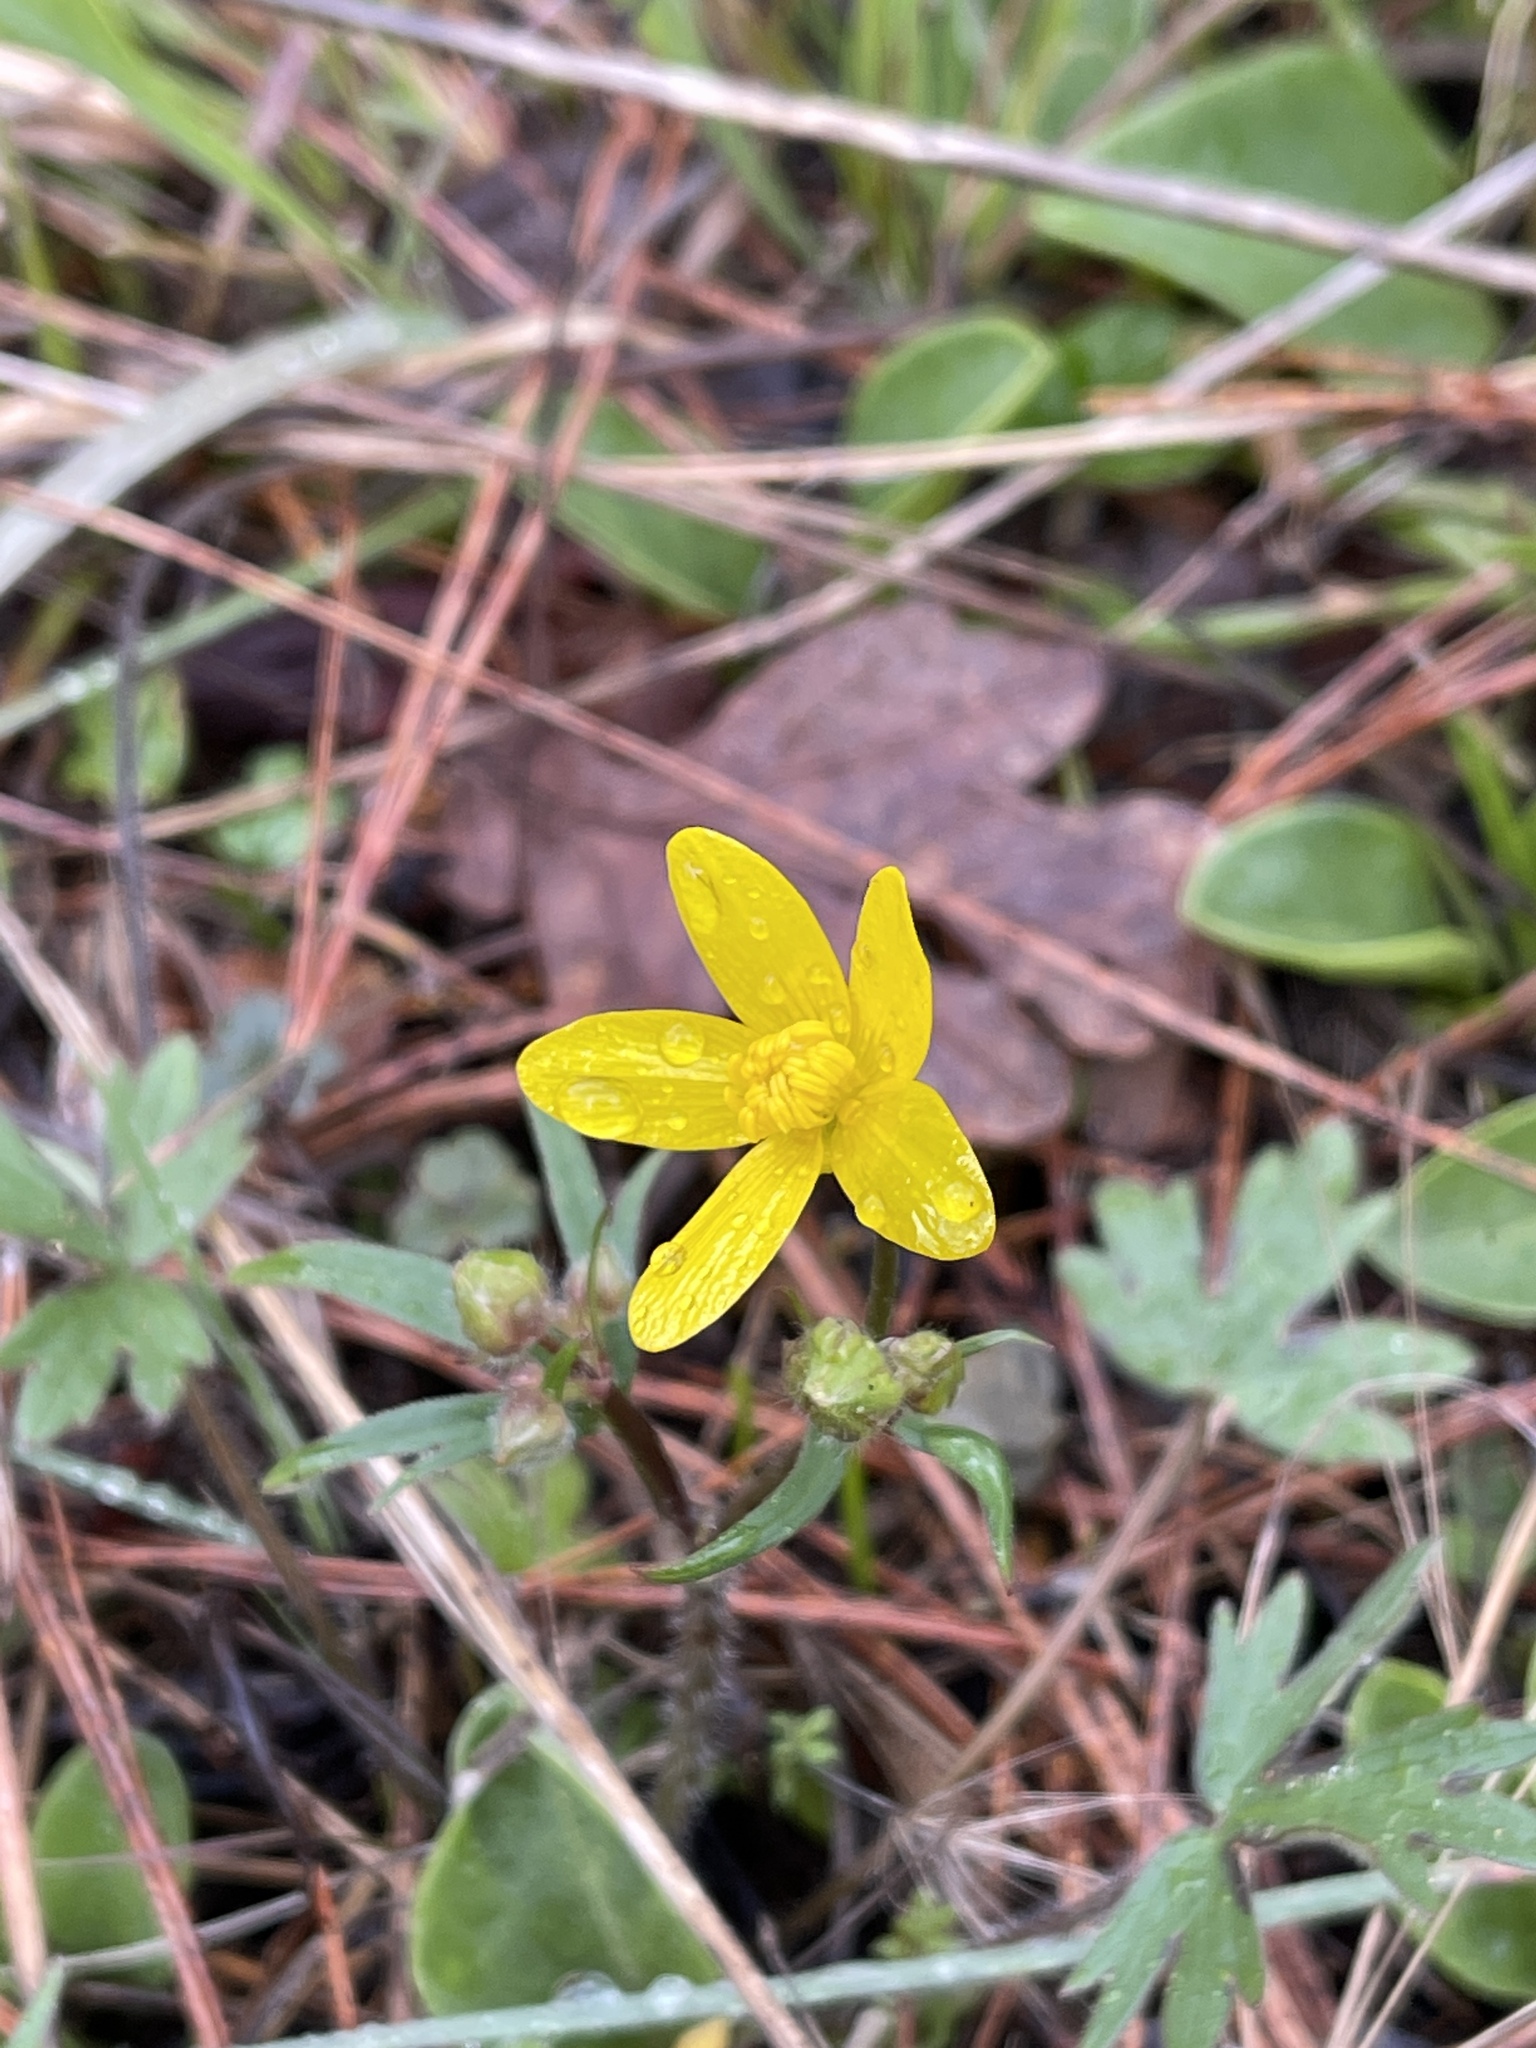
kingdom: Plantae
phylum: Tracheophyta
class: Magnoliopsida
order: Ranunculales
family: Ranunculaceae
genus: Ranunculus
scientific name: Ranunculus occidentalis
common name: Western buttercup
